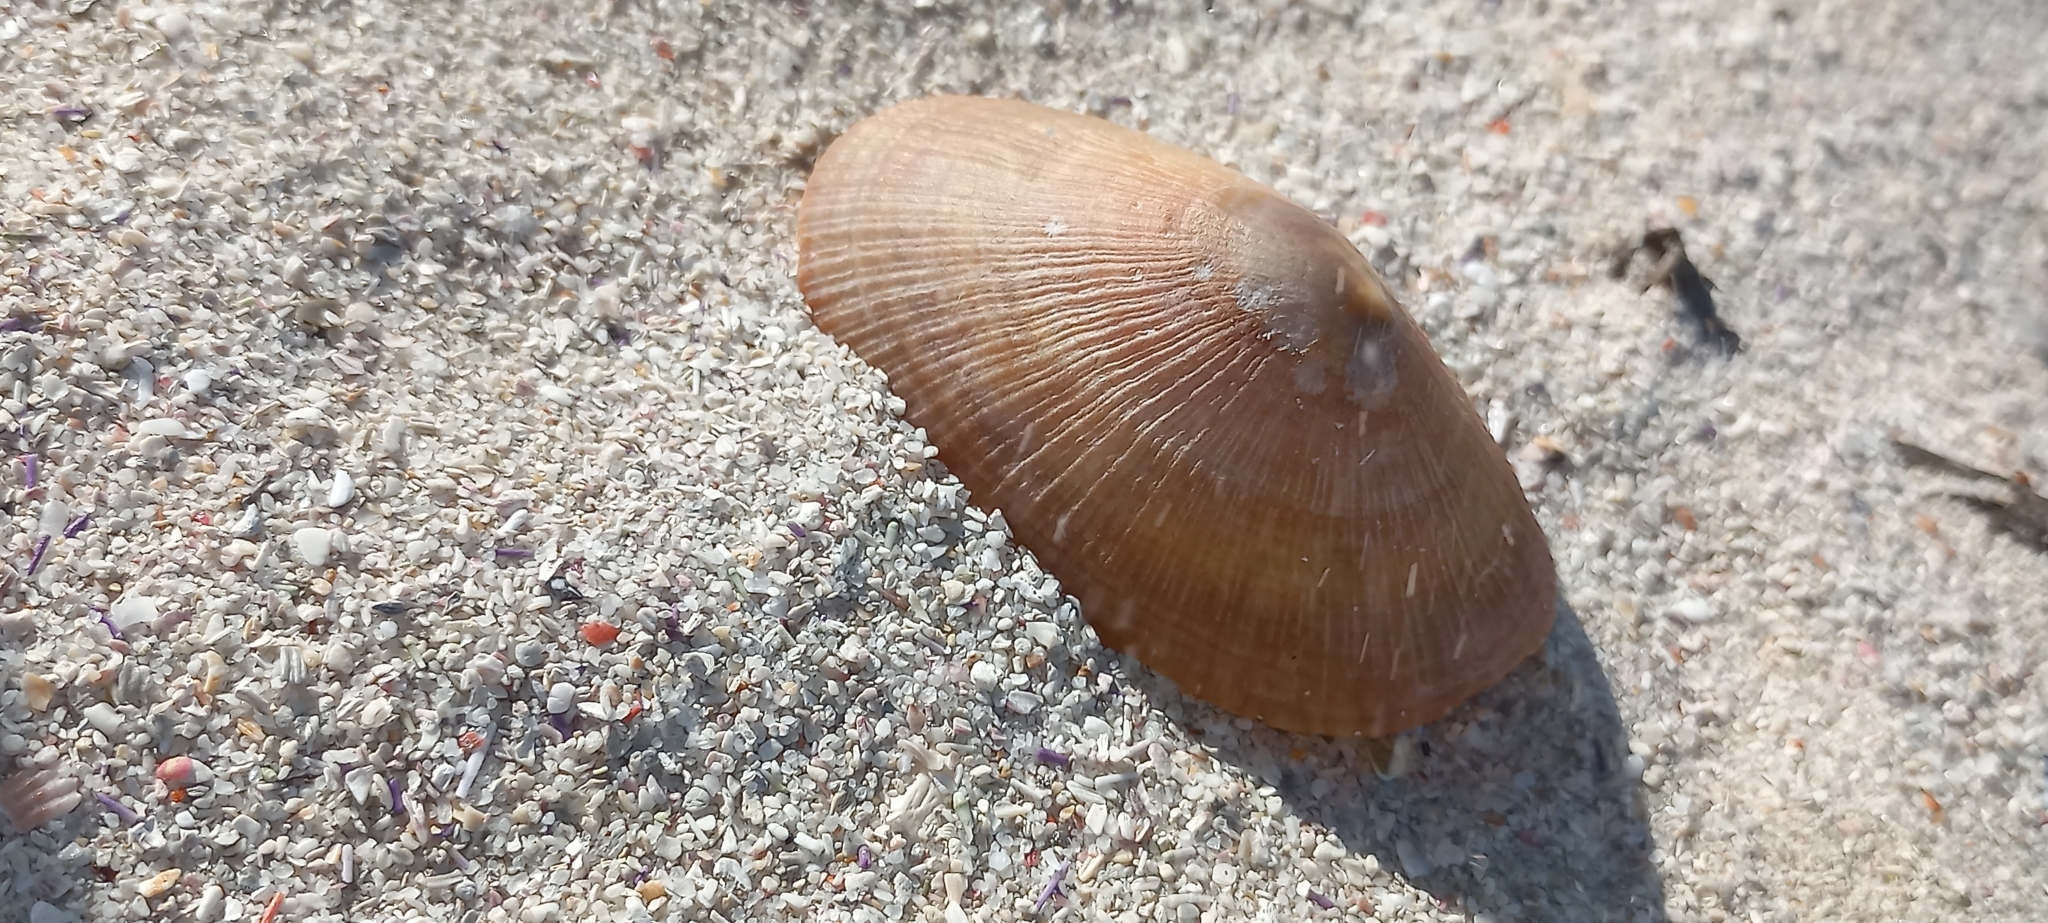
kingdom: Animalia
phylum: Mollusca
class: Gastropoda
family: Patellidae
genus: Cymbula
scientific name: Cymbula compressa
